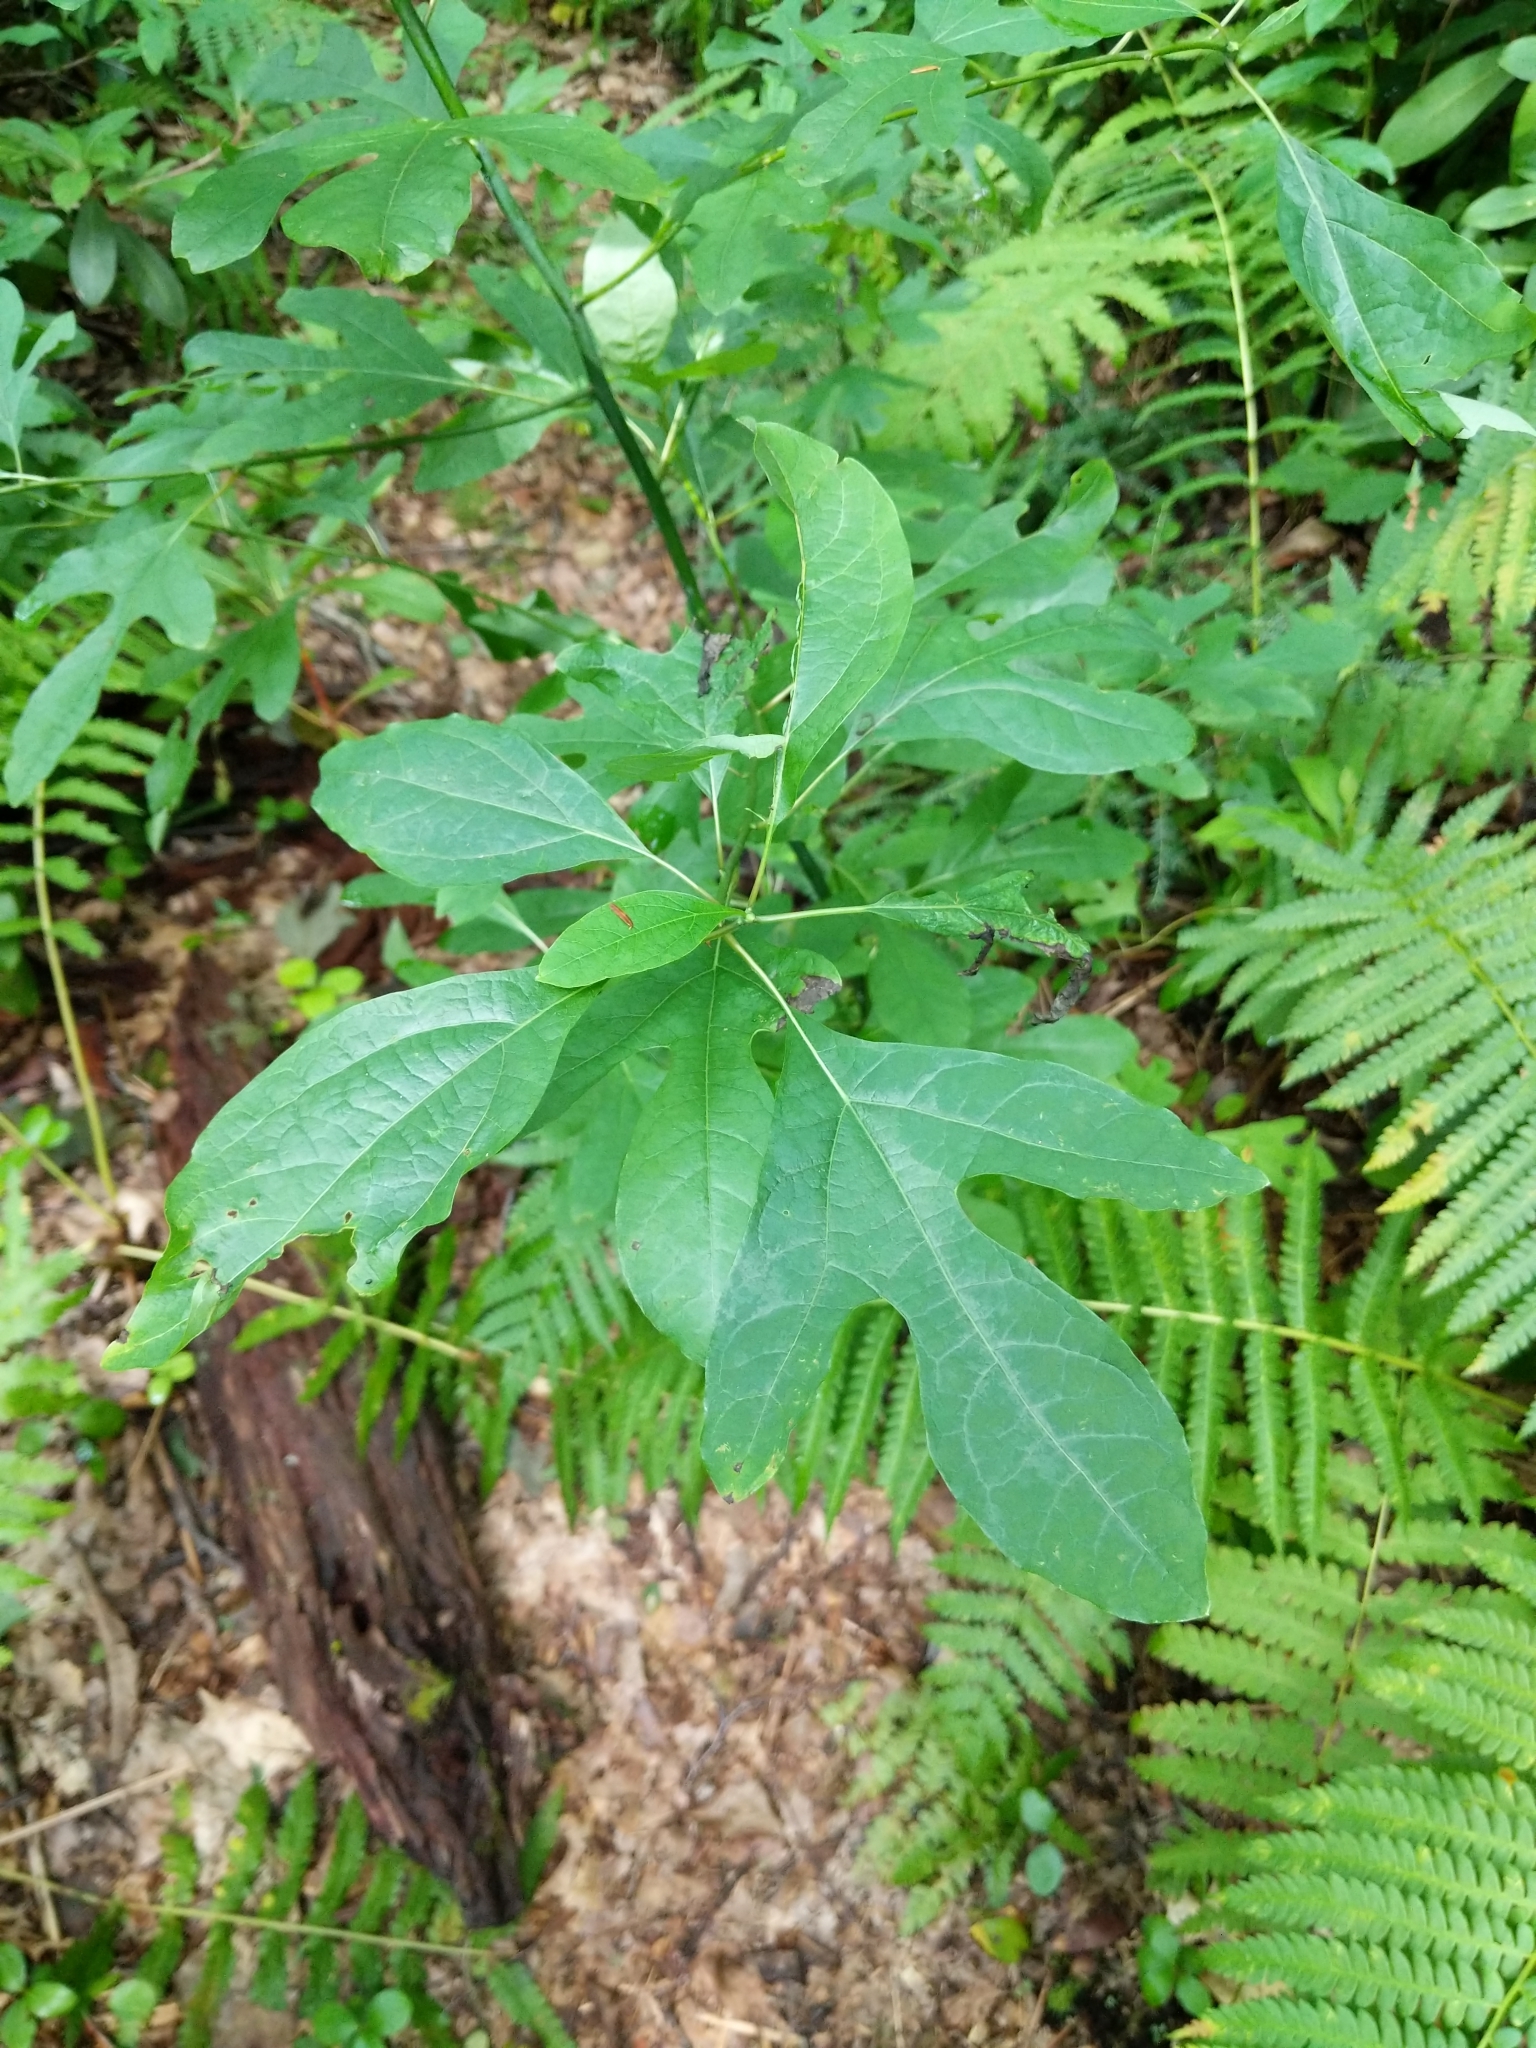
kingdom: Plantae
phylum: Tracheophyta
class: Magnoliopsida
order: Laurales
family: Lauraceae
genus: Sassafras
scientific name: Sassafras albidum
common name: Sassafras
